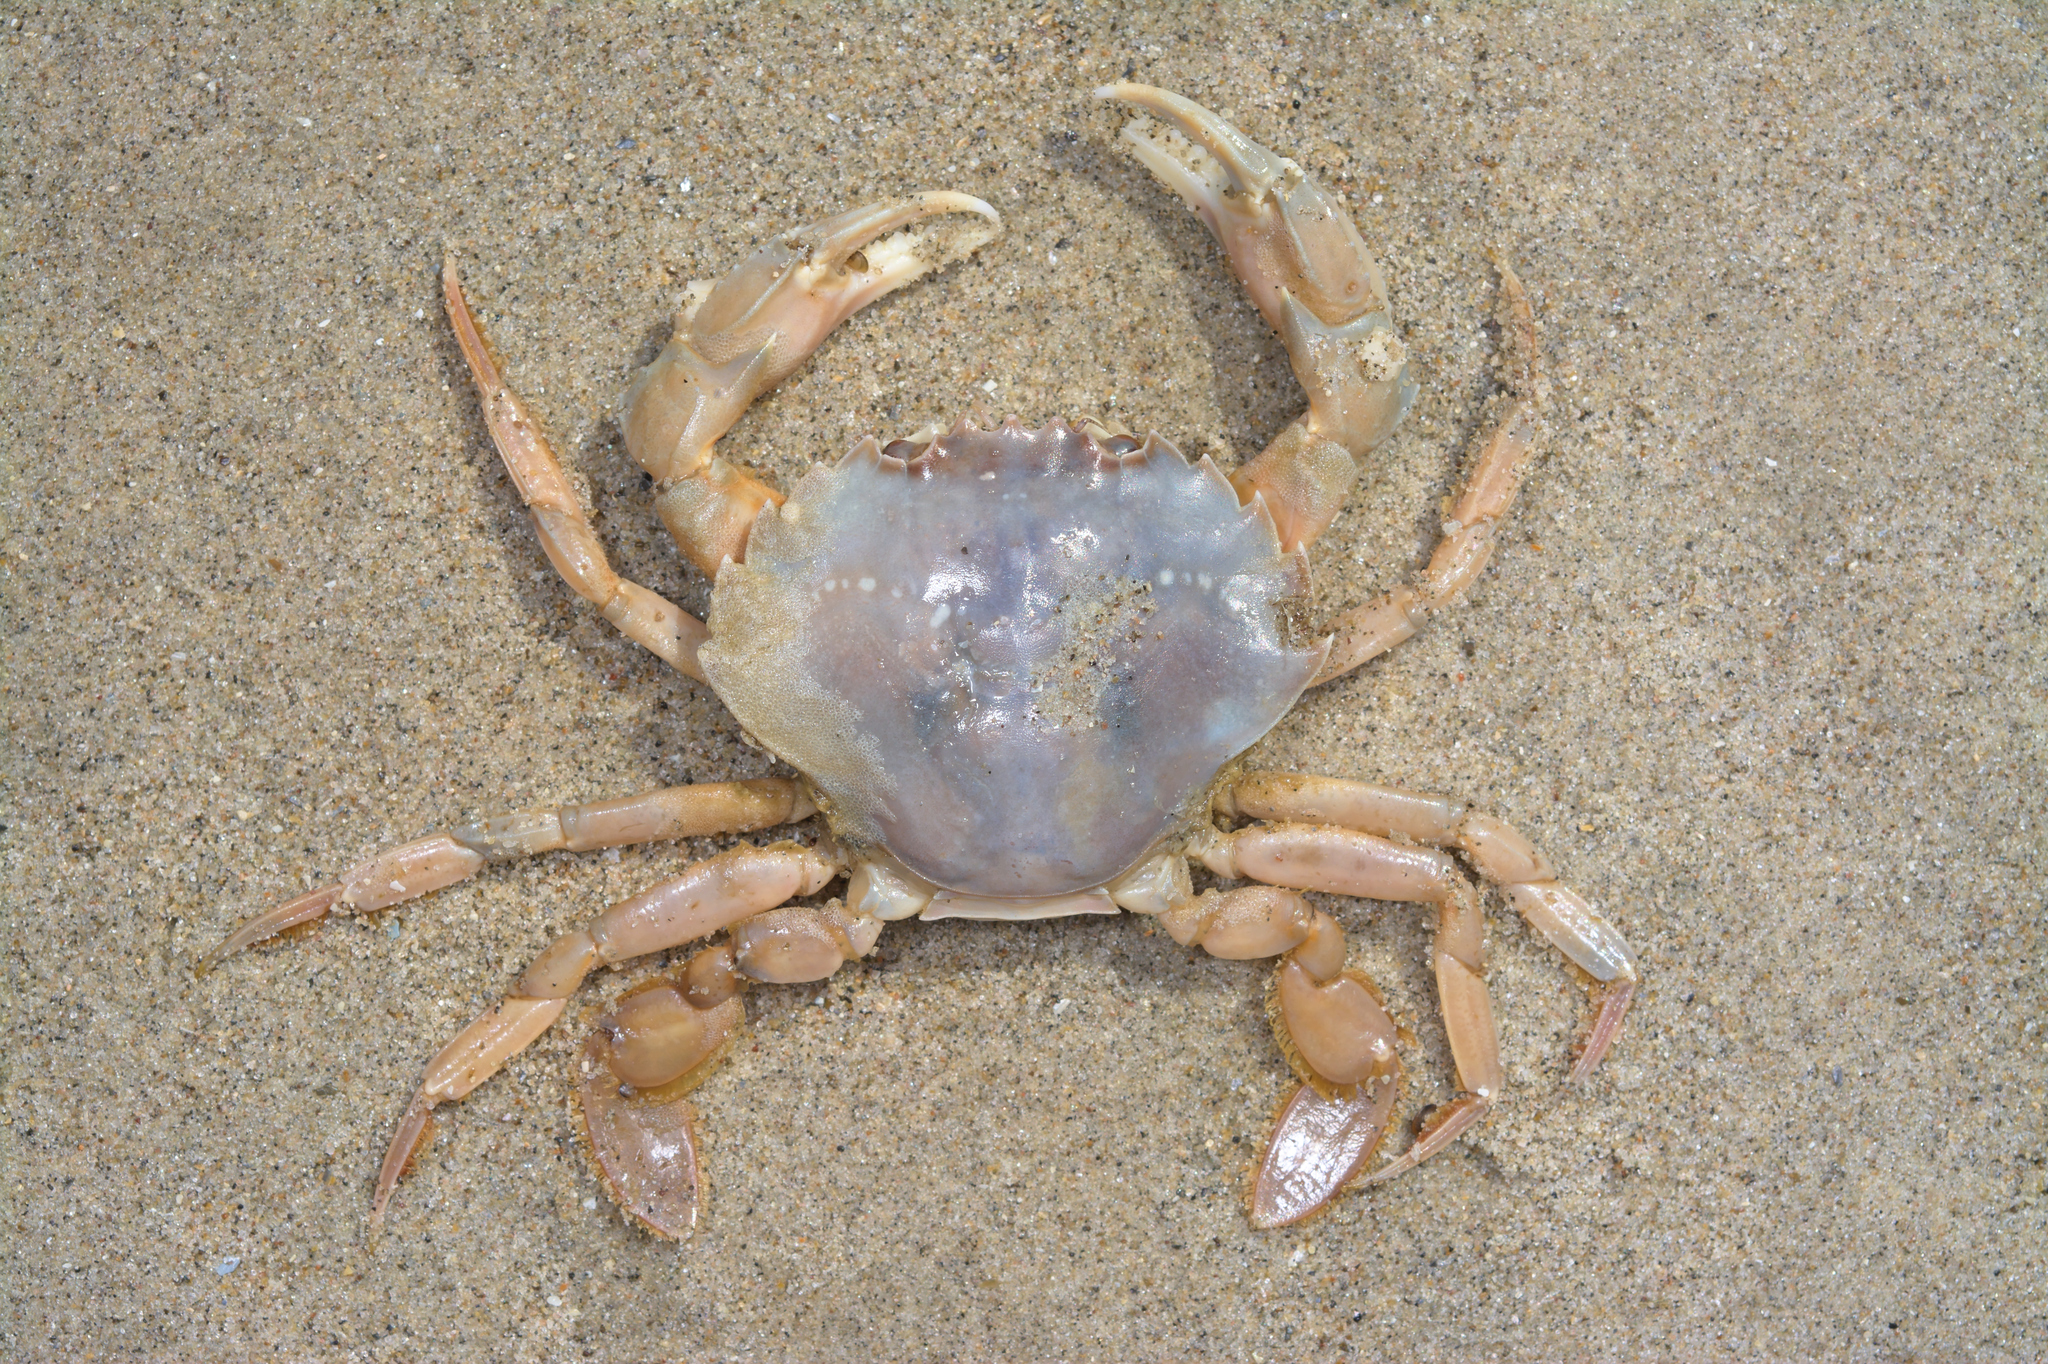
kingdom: Animalia
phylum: Arthropoda
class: Malacostraca
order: Decapoda
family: Polybiidae
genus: Liocarcinus
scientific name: Liocarcinus holsatus
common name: Flying crab
